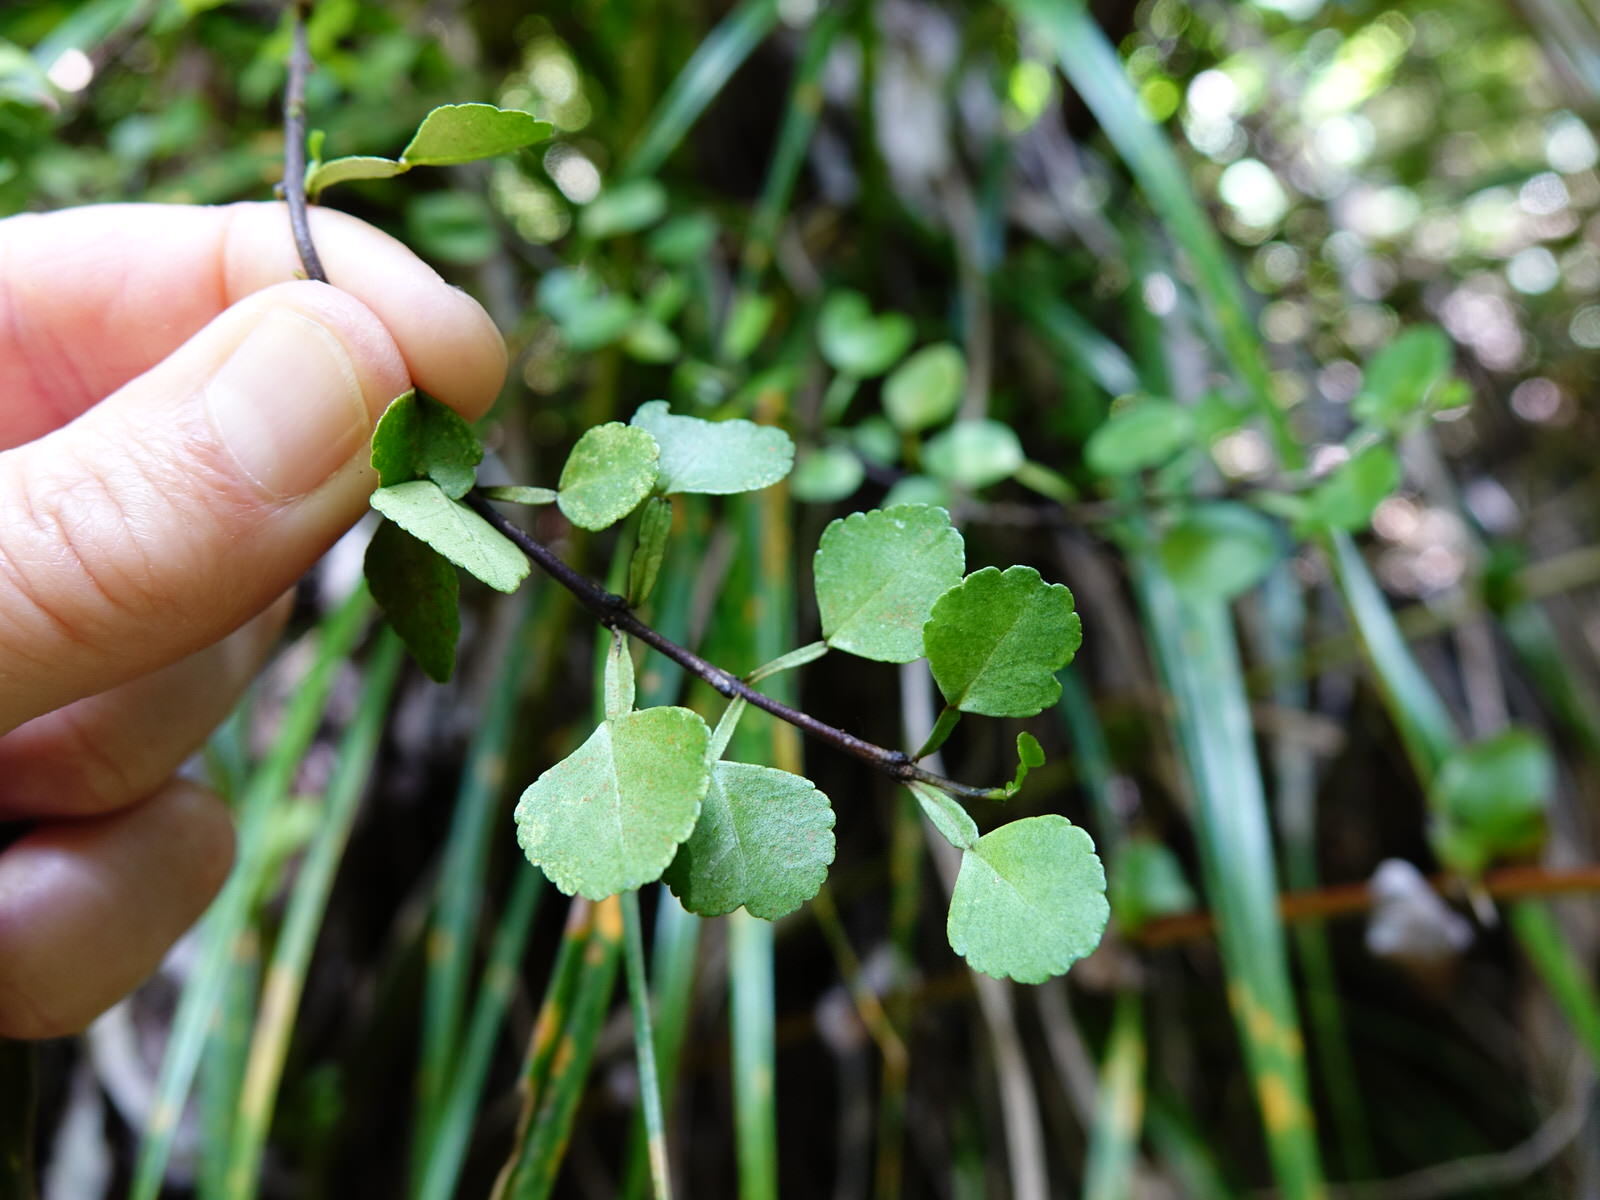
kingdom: Plantae
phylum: Tracheophyta
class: Magnoliopsida
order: Sapindales
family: Rutaceae
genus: Melicope
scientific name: Melicope simplex
